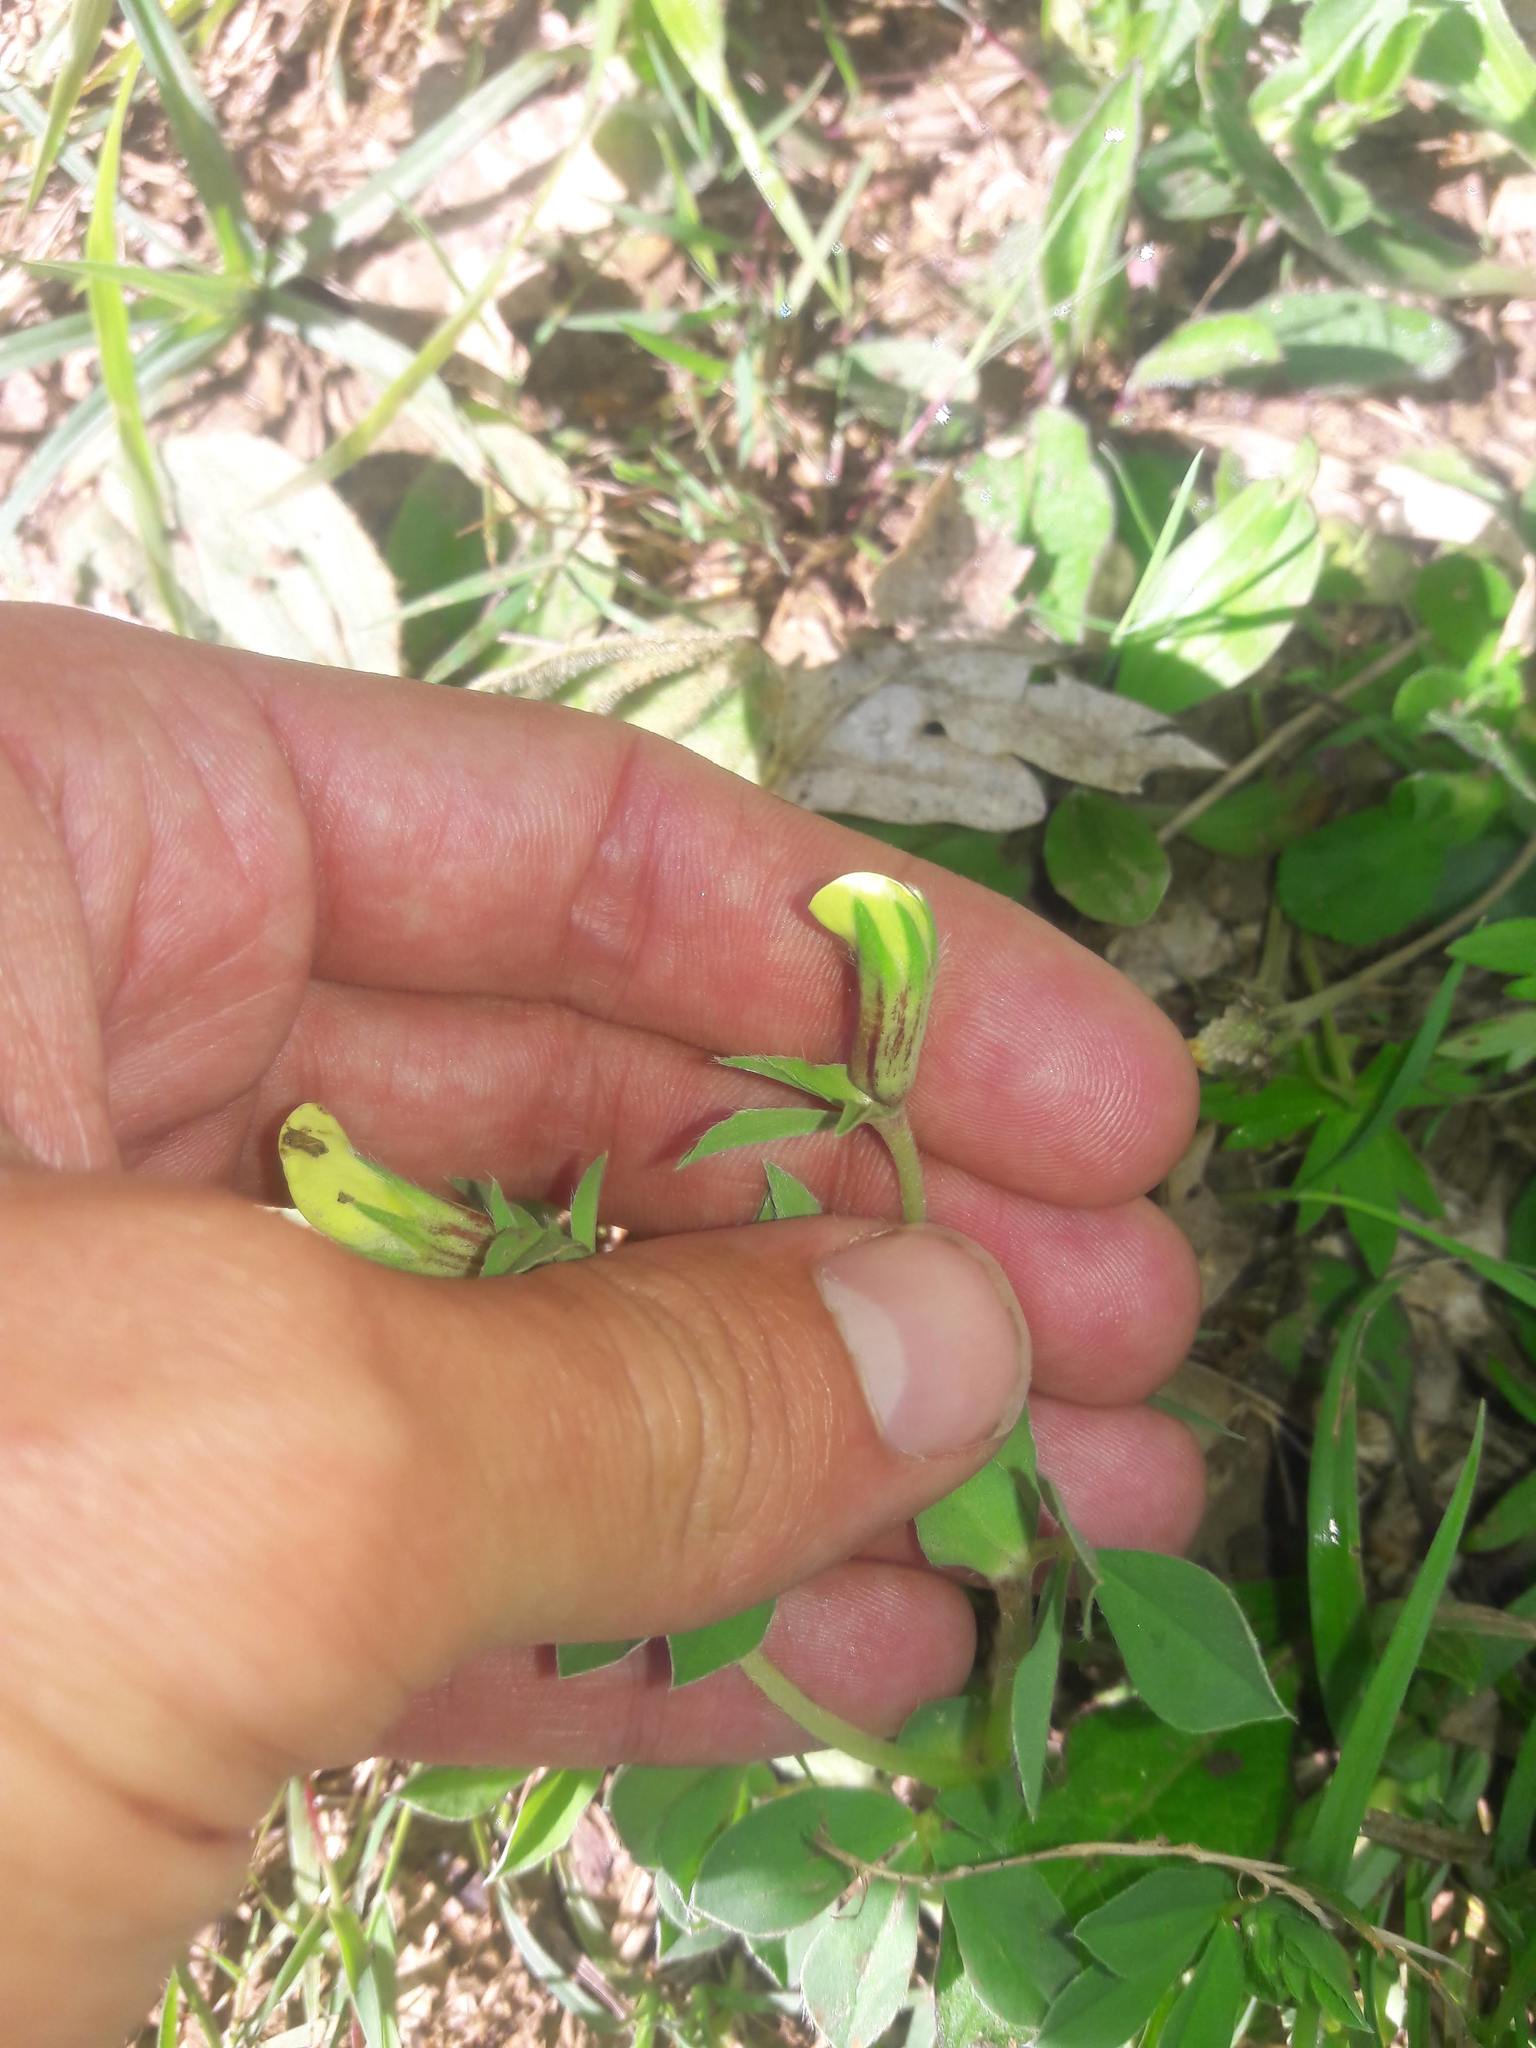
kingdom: Plantae
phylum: Tracheophyta
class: Magnoliopsida
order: Fabales
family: Fabaceae
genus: Lotus
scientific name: Lotus maritimus
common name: Dragon's-teeth
